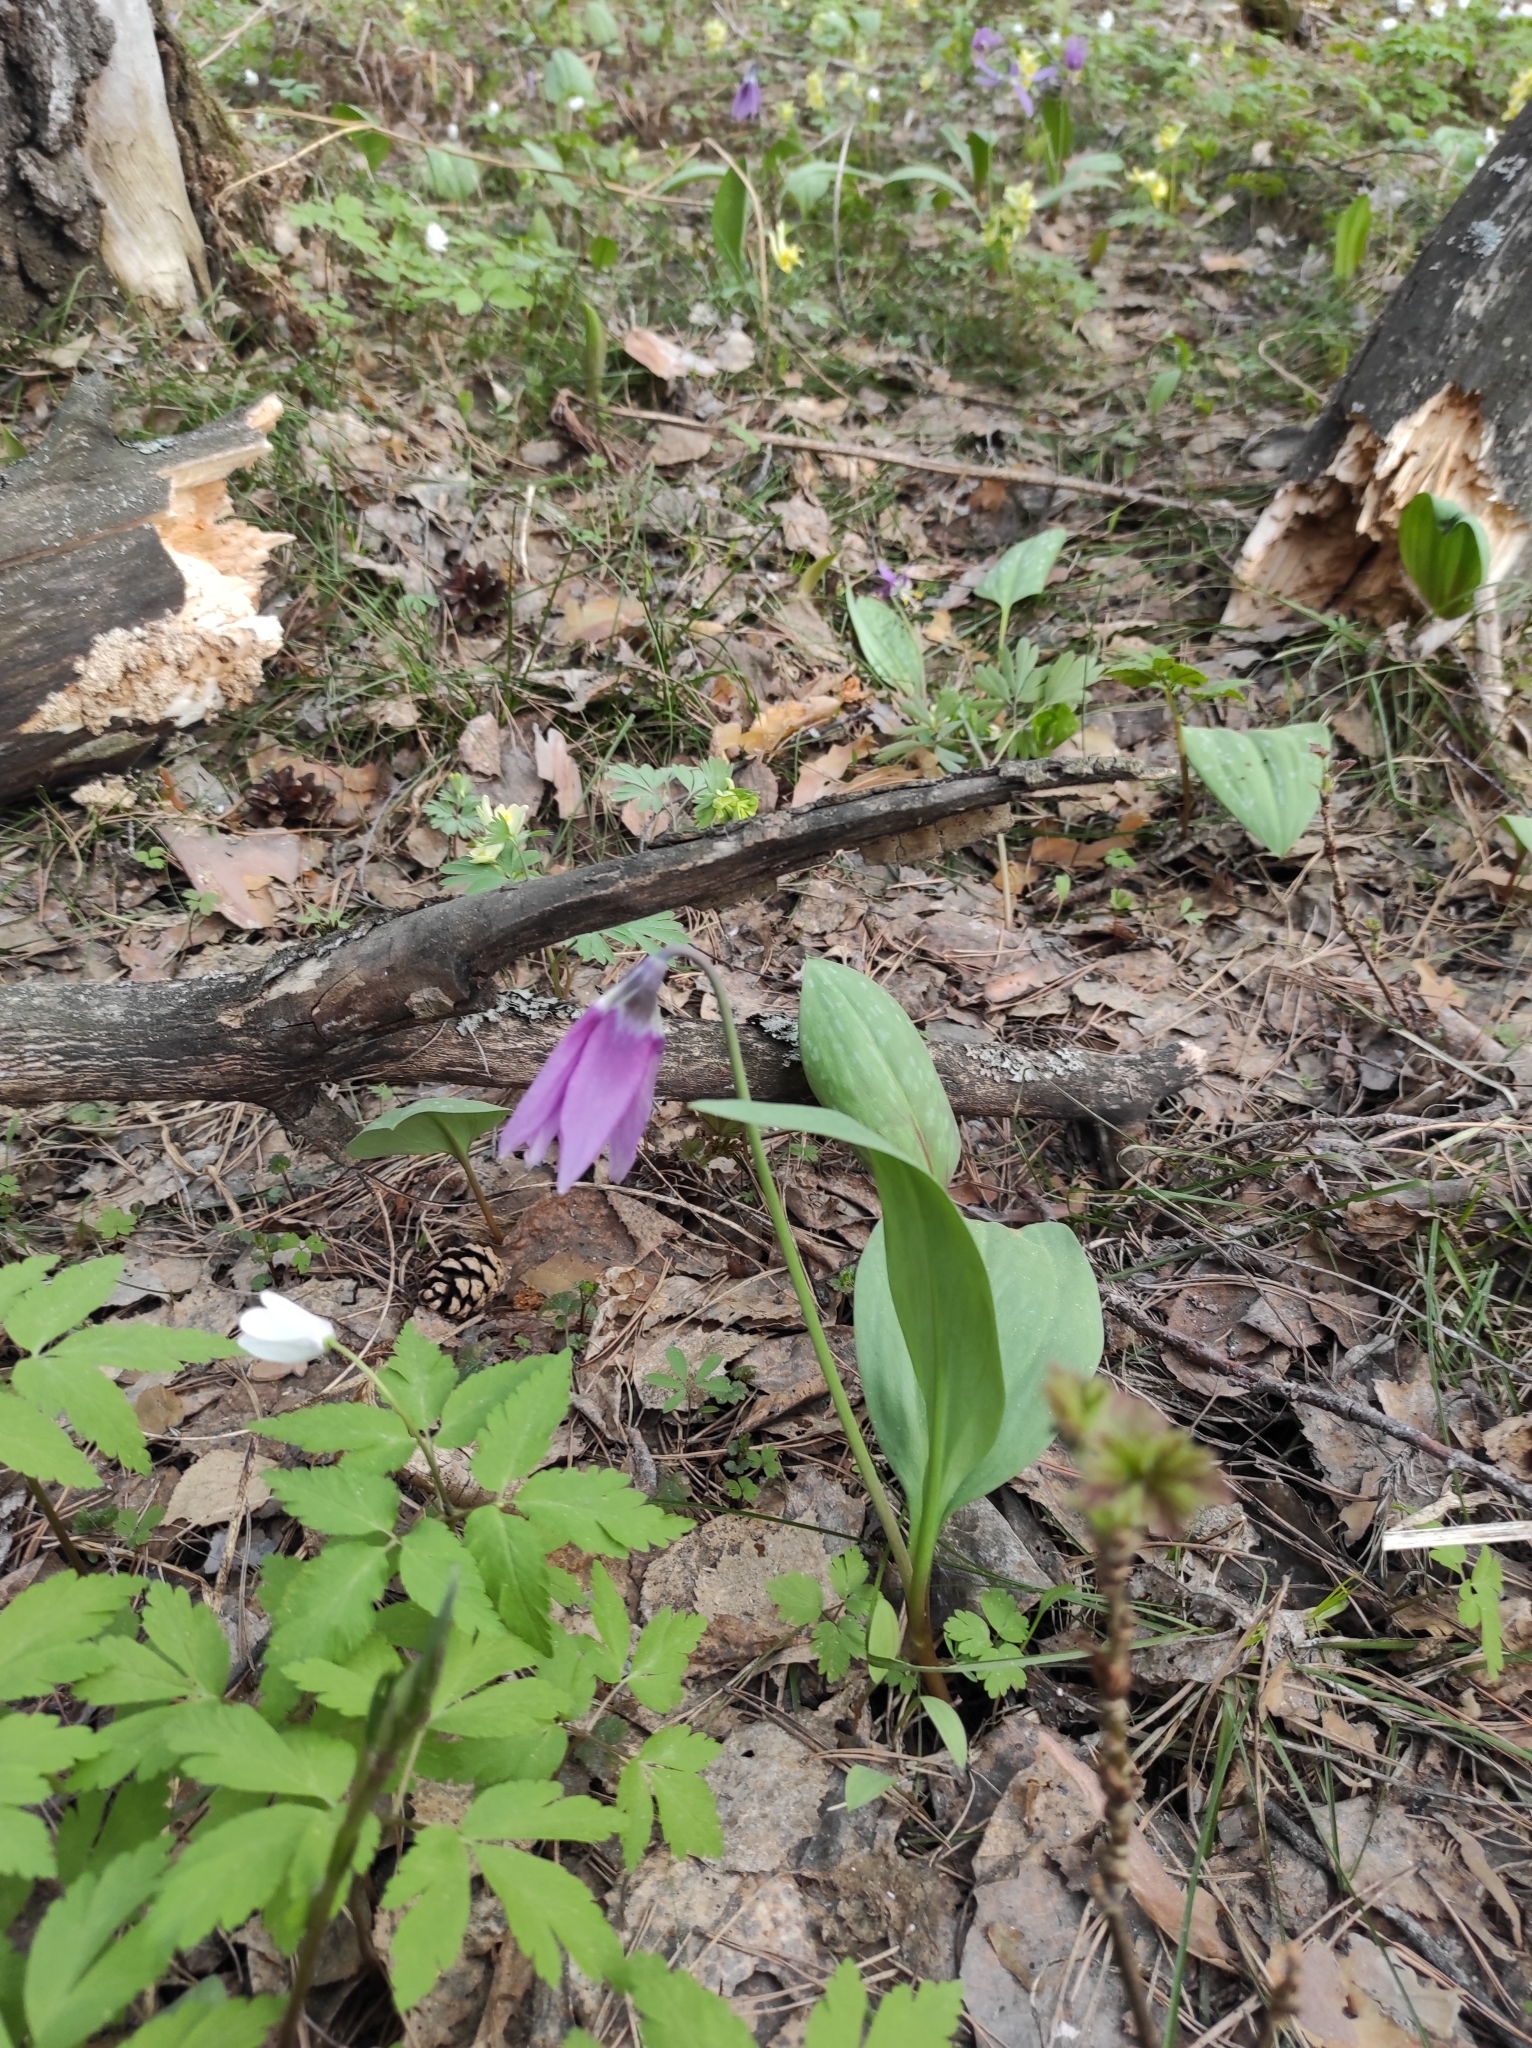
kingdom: Plantae
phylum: Tracheophyta
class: Liliopsida
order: Liliales
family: Liliaceae
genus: Erythronium
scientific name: Erythronium sibiricum
